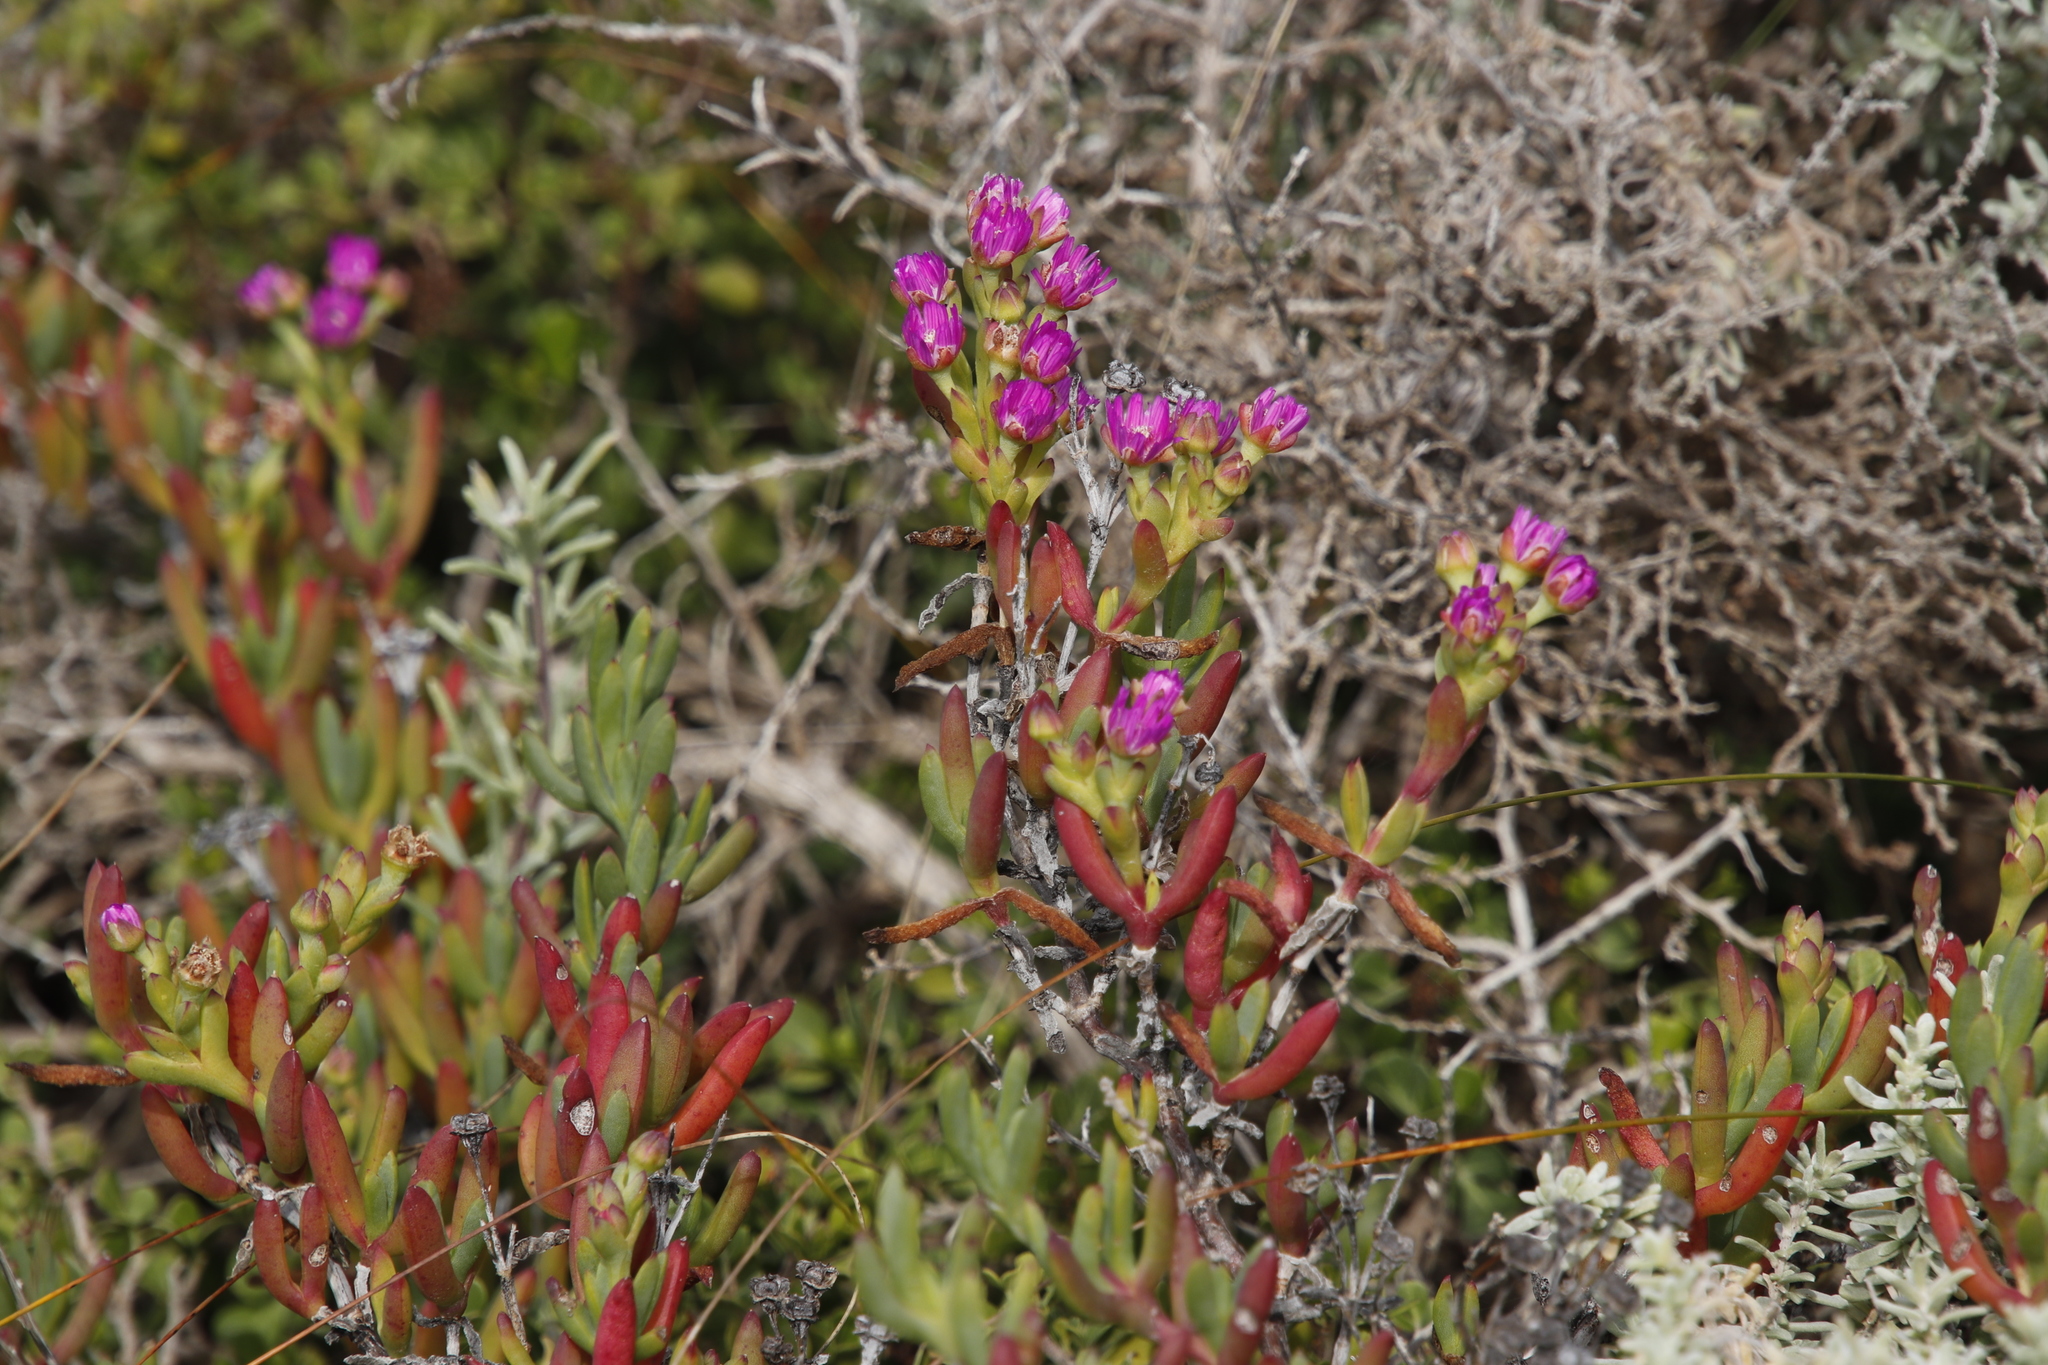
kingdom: Plantae
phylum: Tracheophyta
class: Magnoliopsida
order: Caryophyllales
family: Aizoaceae
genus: Ruschia
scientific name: Ruschia macowanii
